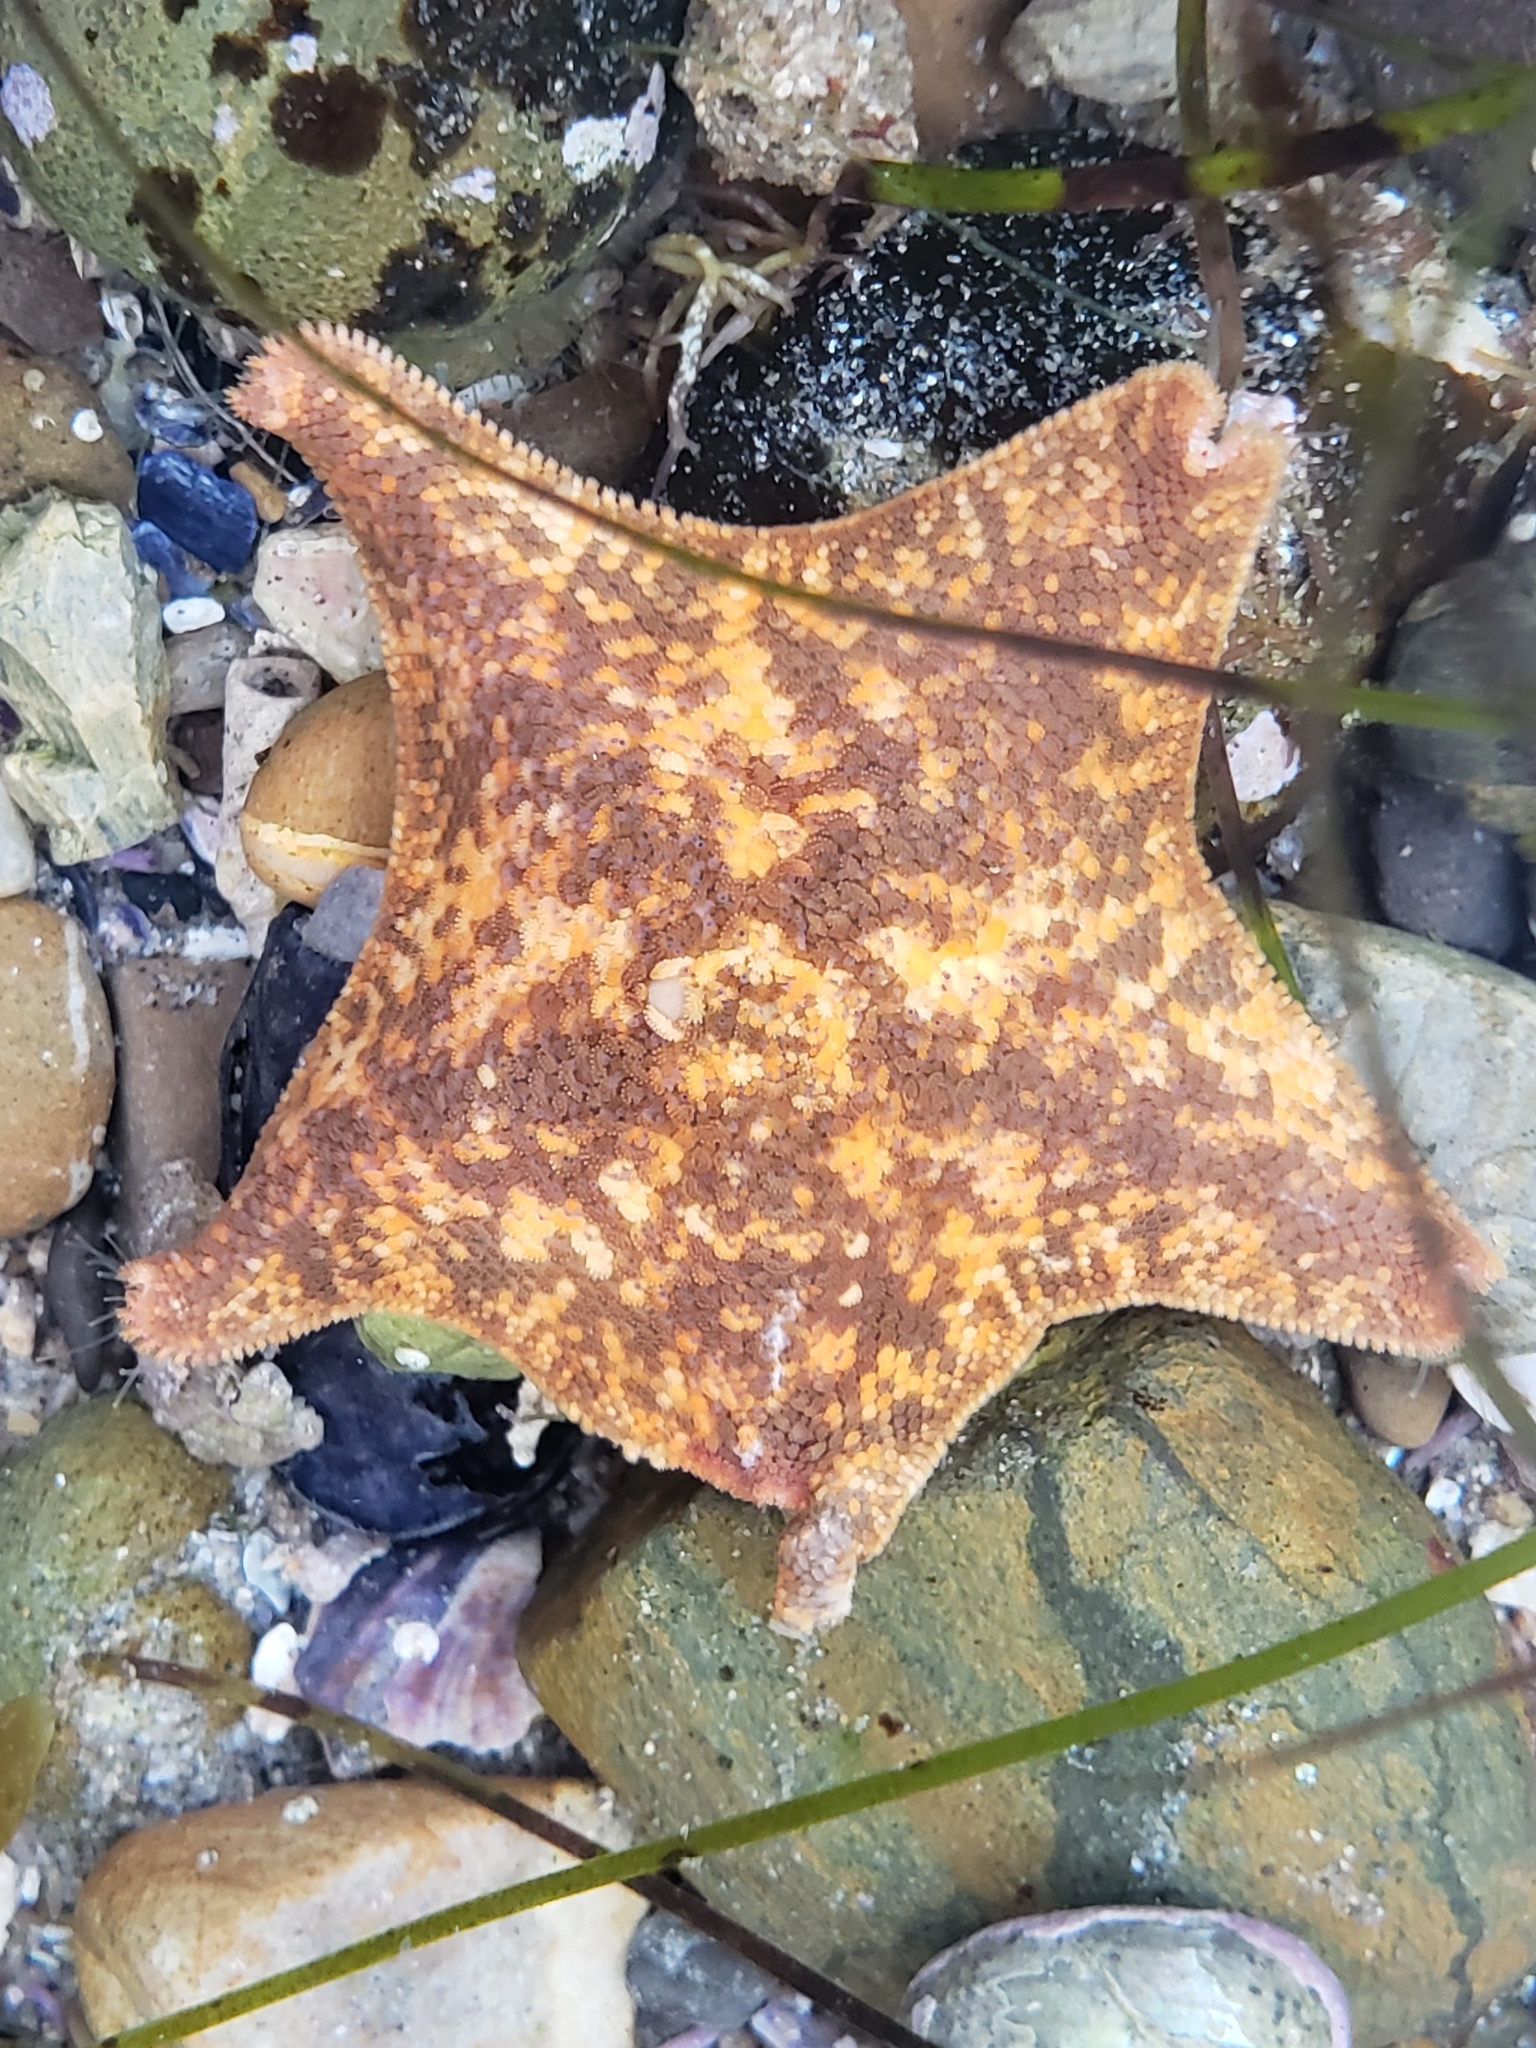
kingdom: Animalia
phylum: Echinodermata
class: Asteroidea
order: Valvatida
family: Asterinidae
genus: Patiria
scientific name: Patiria miniata
